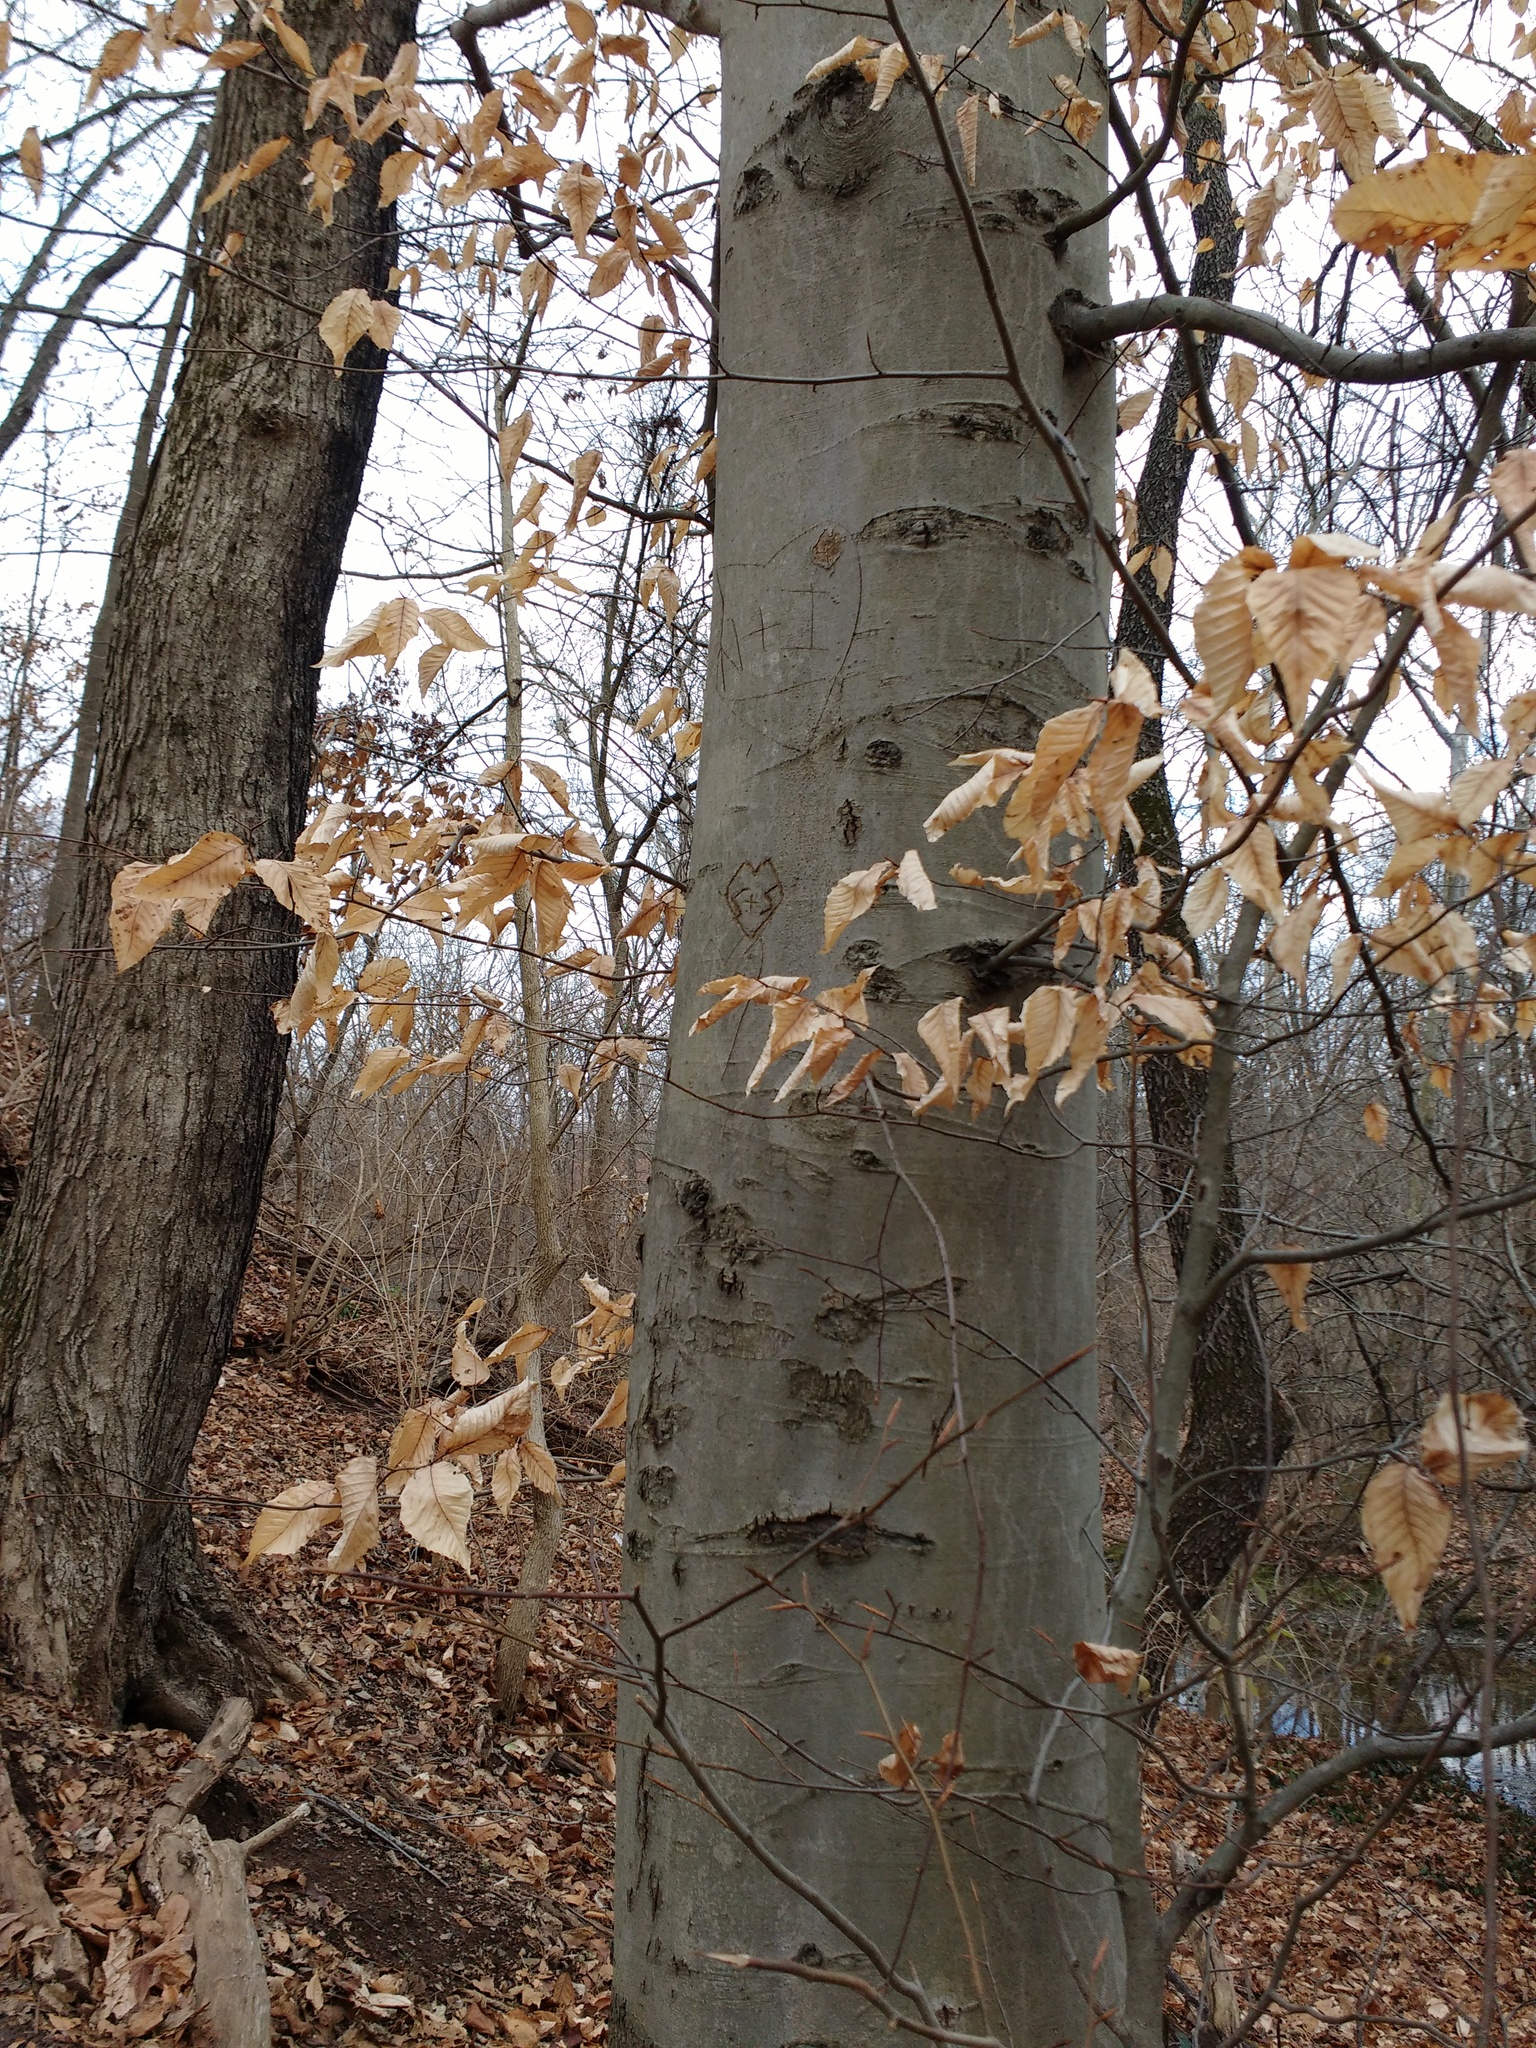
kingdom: Plantae
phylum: Tracheophyta
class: Magnoliopsida
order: Fagales
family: Fagaceae
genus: Fagus
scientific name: Fagus grandifolia
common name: American beech
